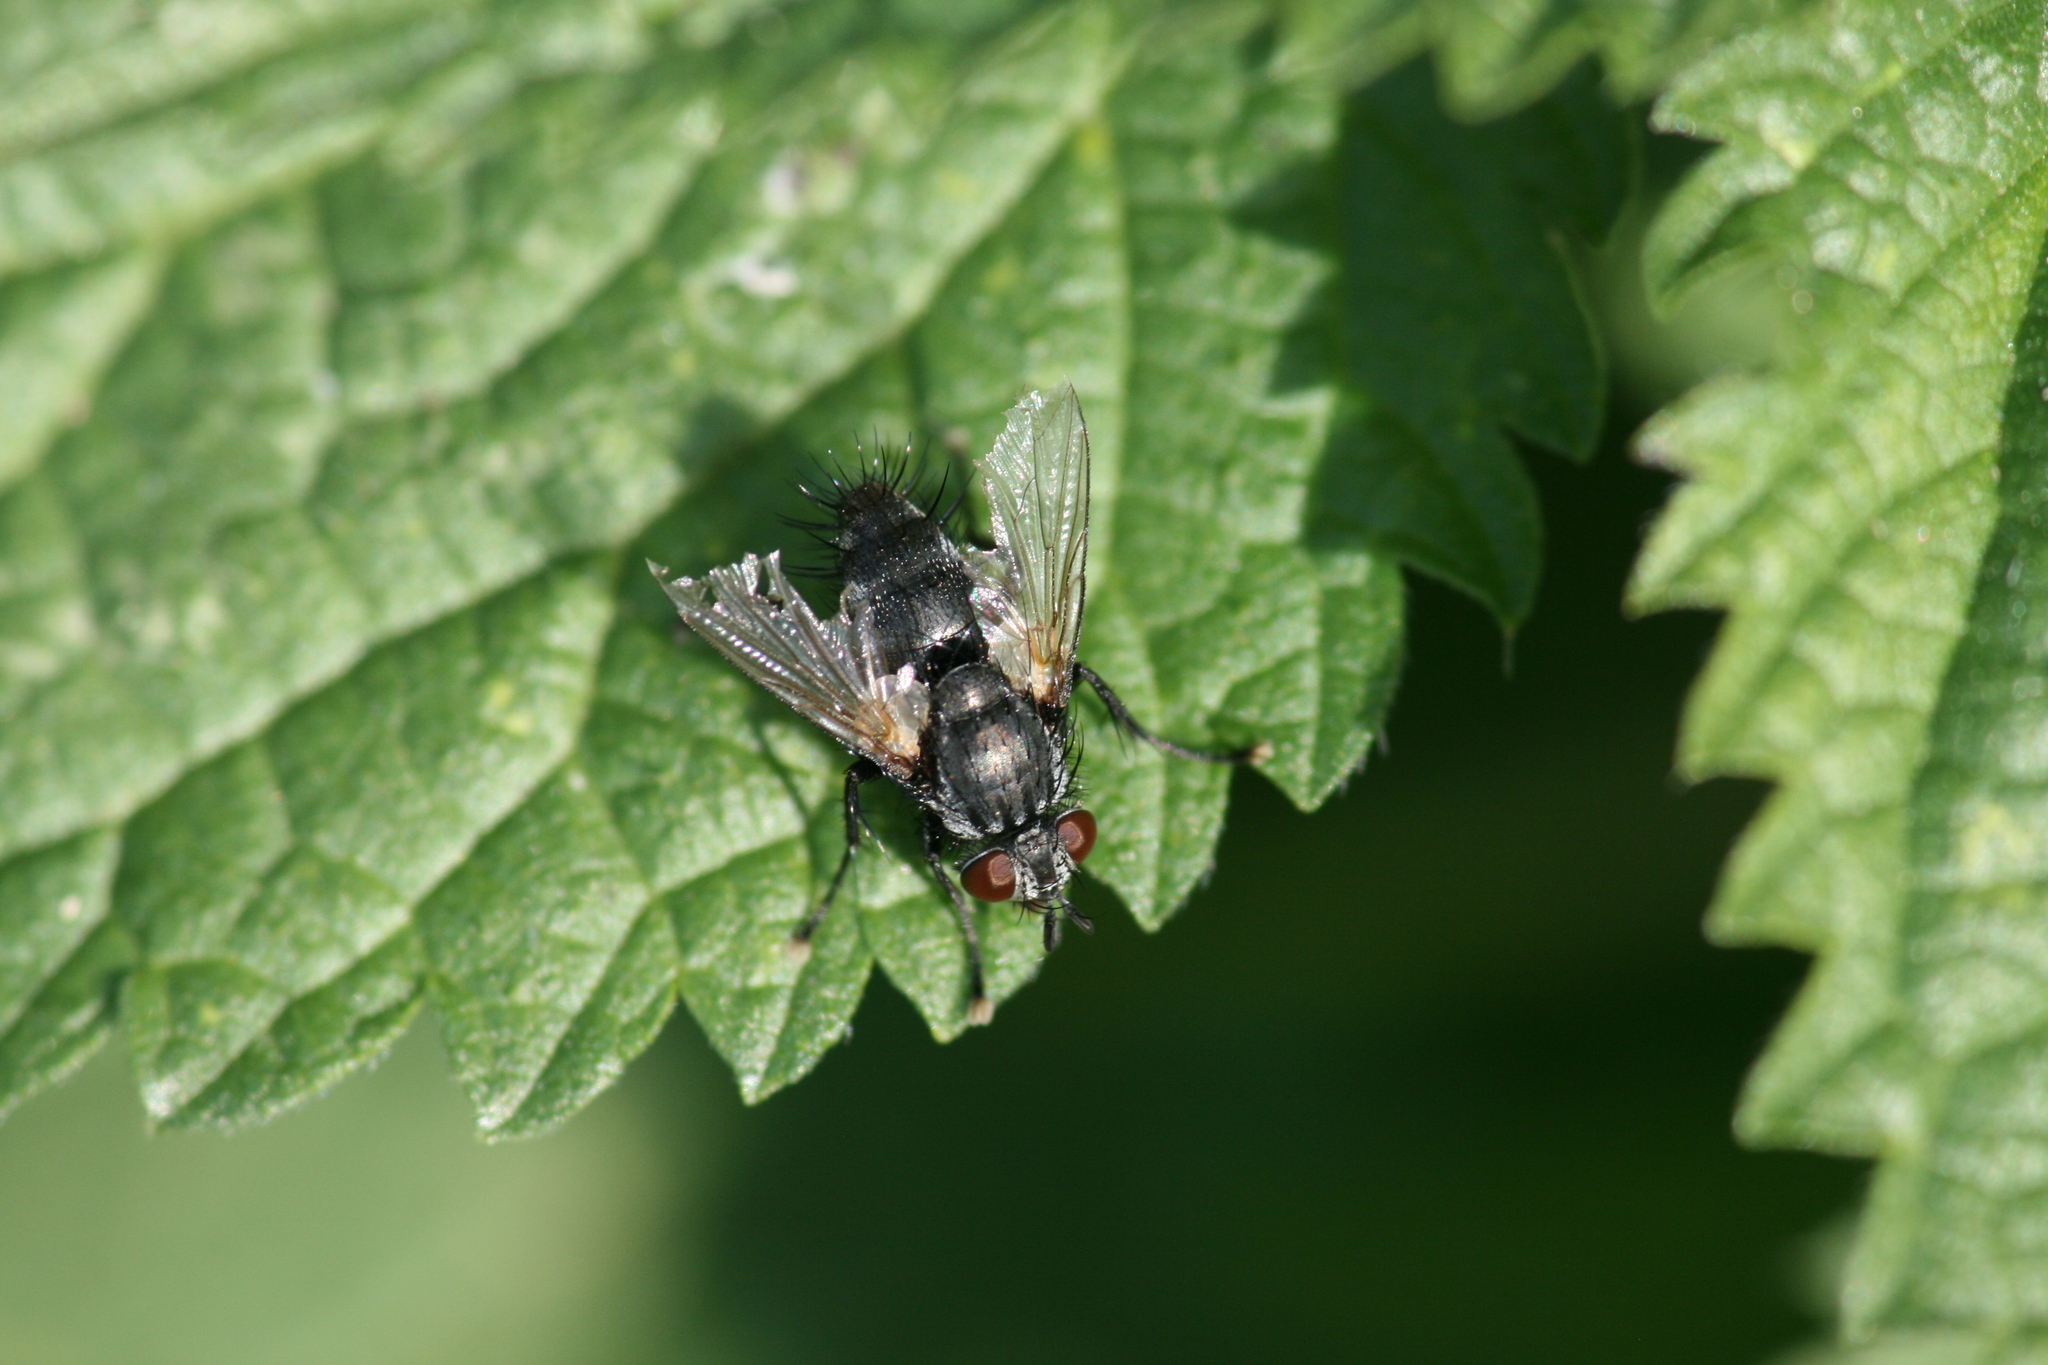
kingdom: Animalia
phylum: Arthropoda
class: Insecta
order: Diptera
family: Tachinidae
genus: Voria
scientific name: Voria ruralis
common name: Parasitic fly
